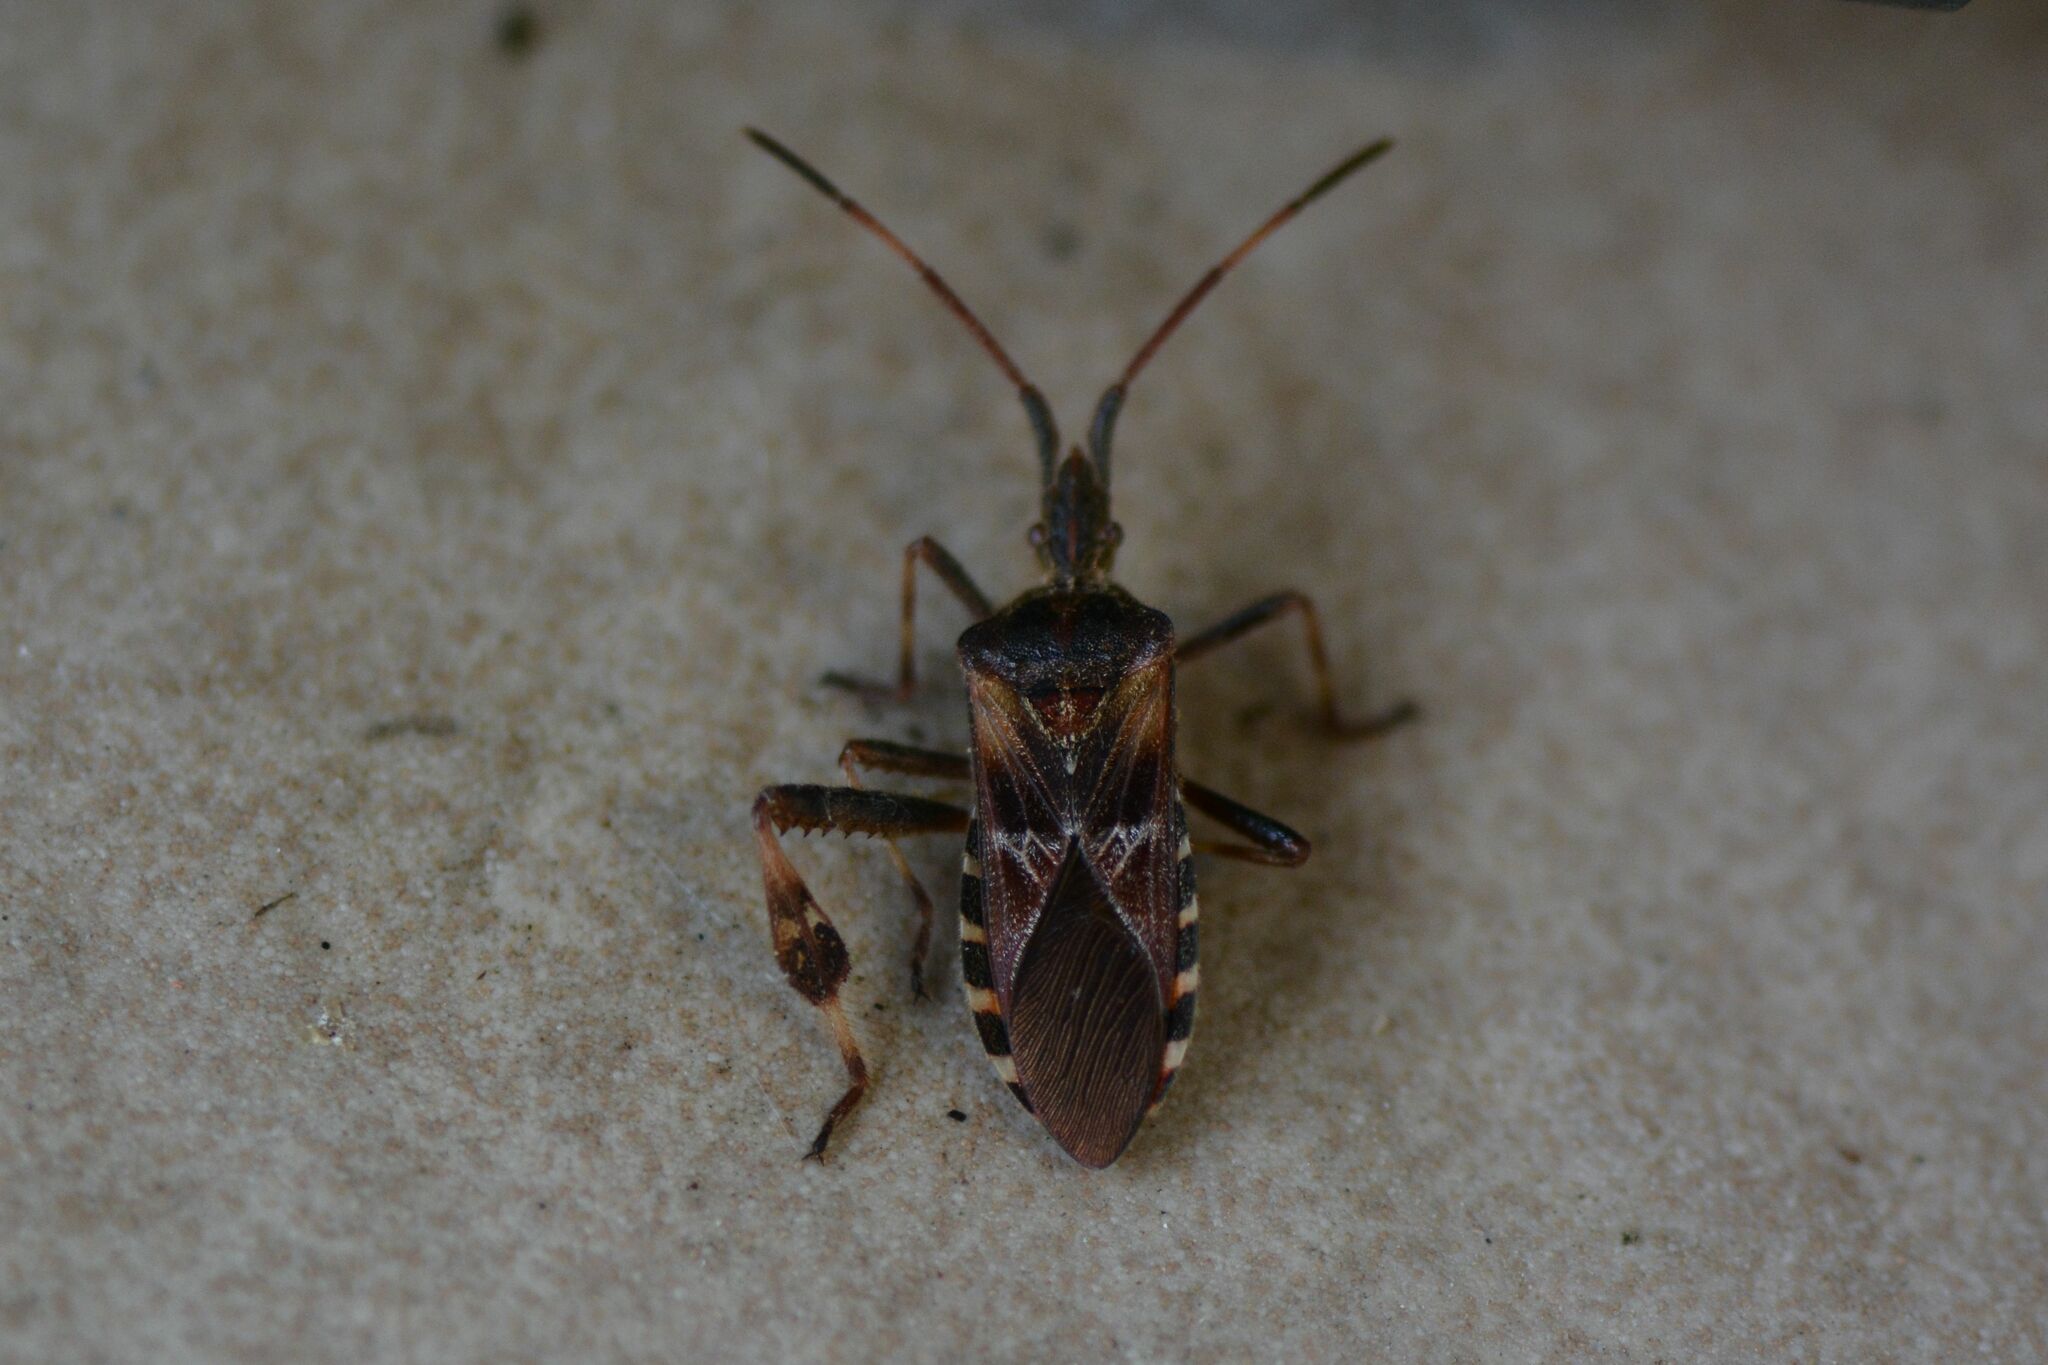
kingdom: Animalia
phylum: Arthropoda
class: Insecta
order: Hemiptera
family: Coreidae
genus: Leptoglossus
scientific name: Leptoglossus occidentalis
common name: Western conifer-seed bug
